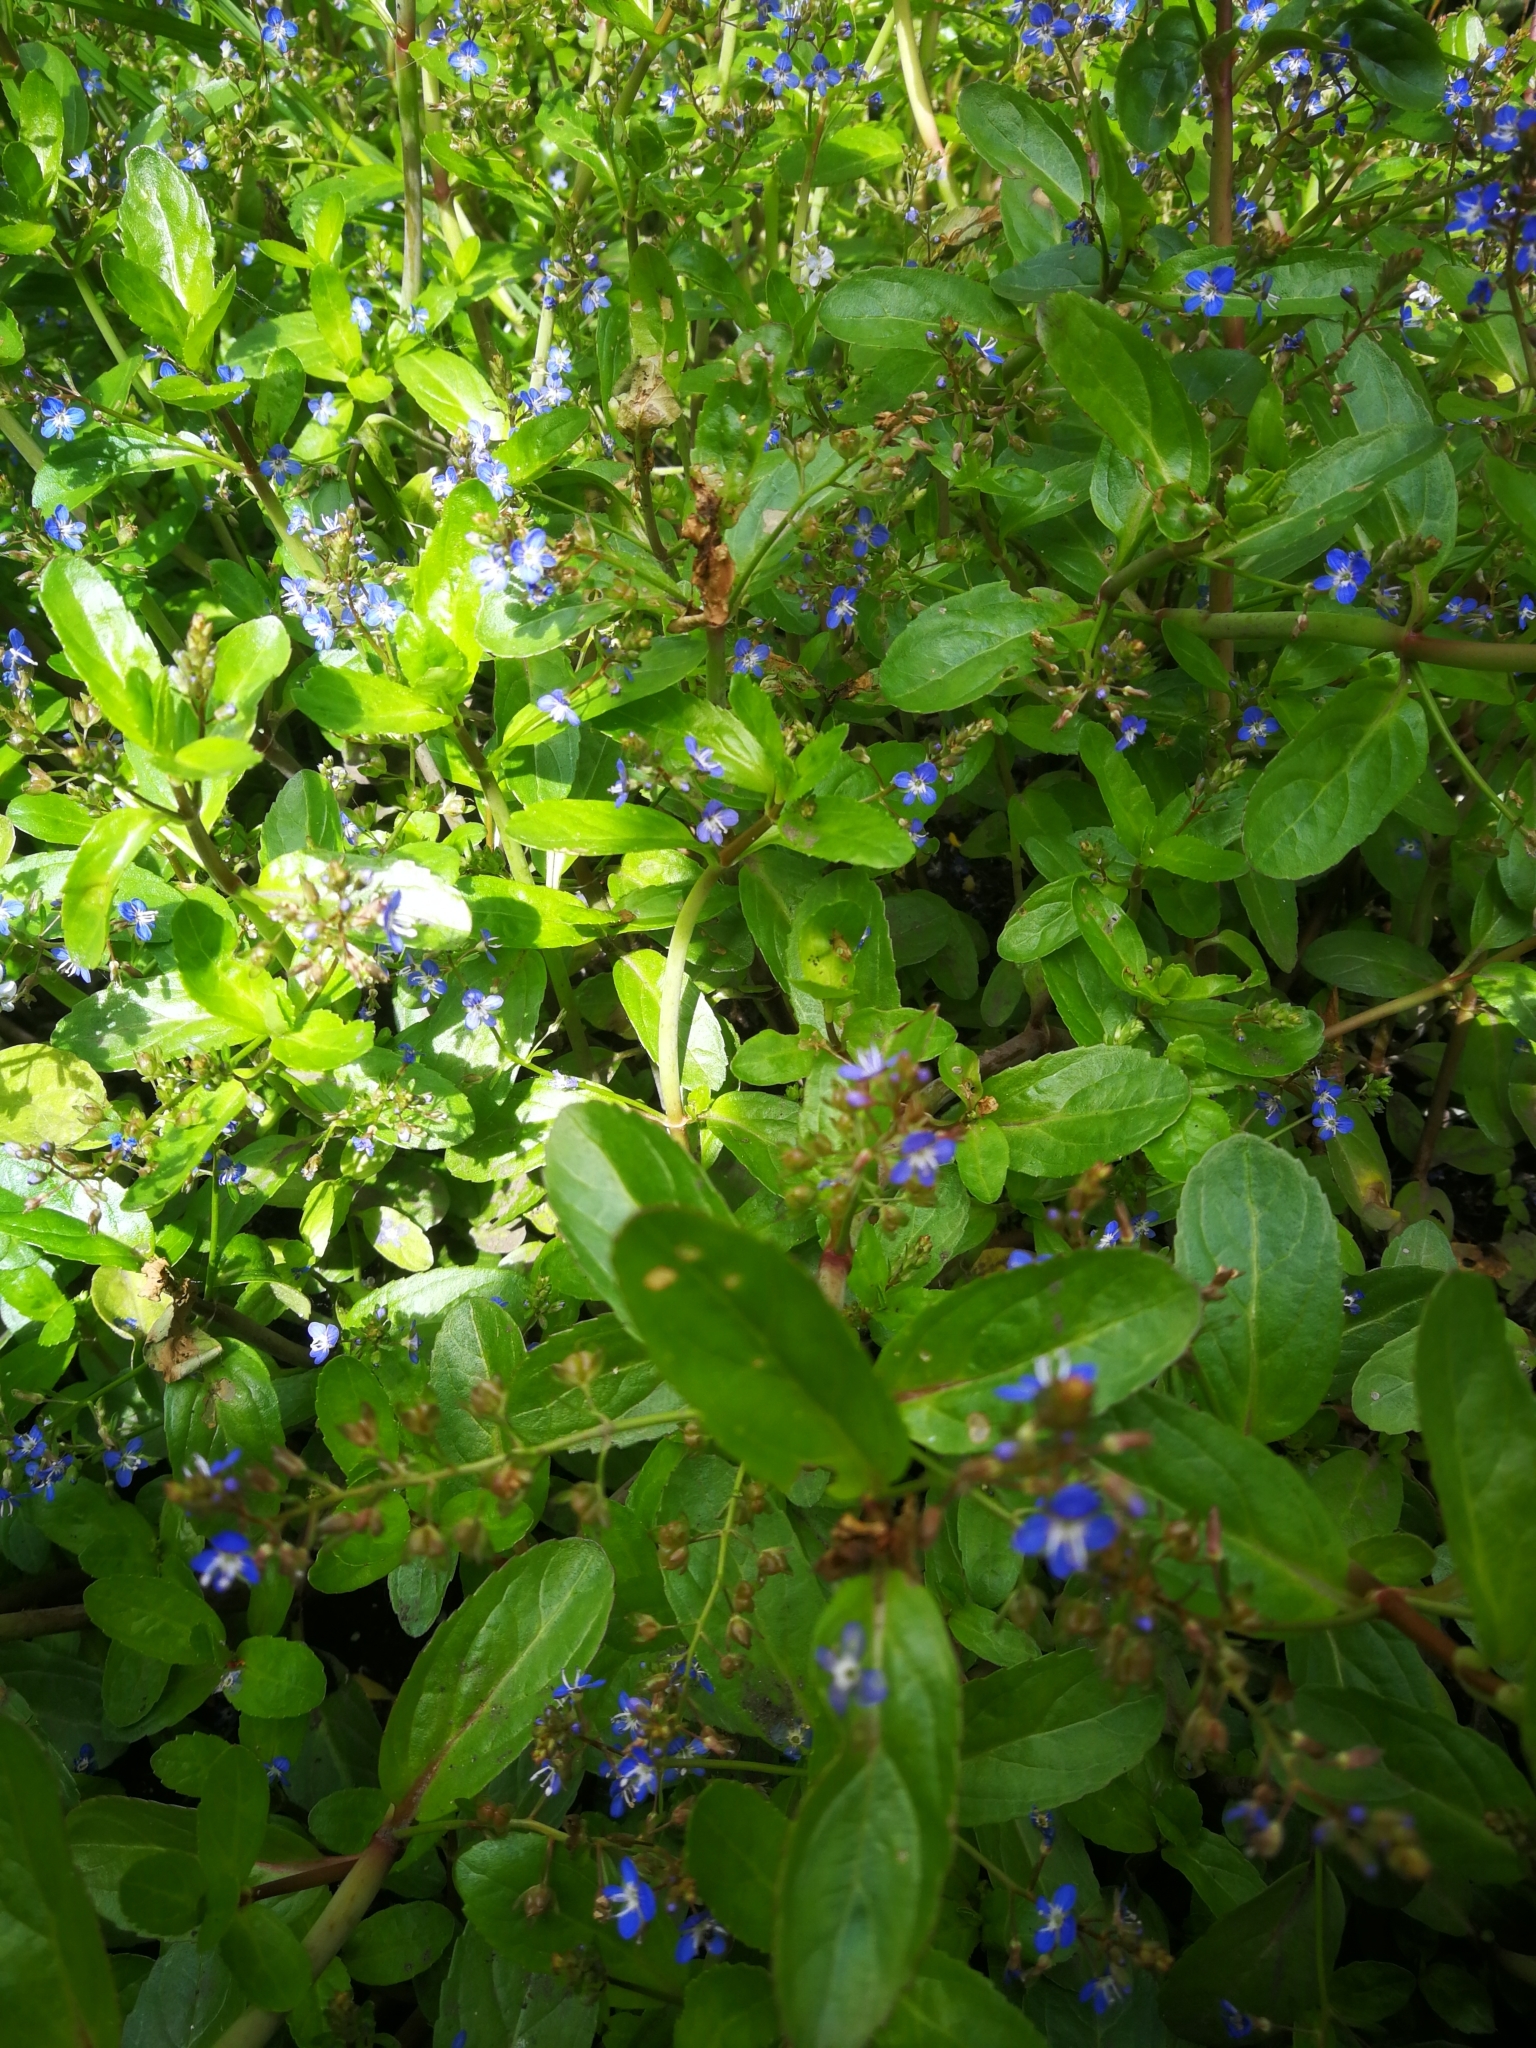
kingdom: Plantae
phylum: Tracheophyta
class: Magnoliopsida
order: Lamiales
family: Plantaginaceae
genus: Veronica
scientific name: Veronica beccabunga
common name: Brooklime
